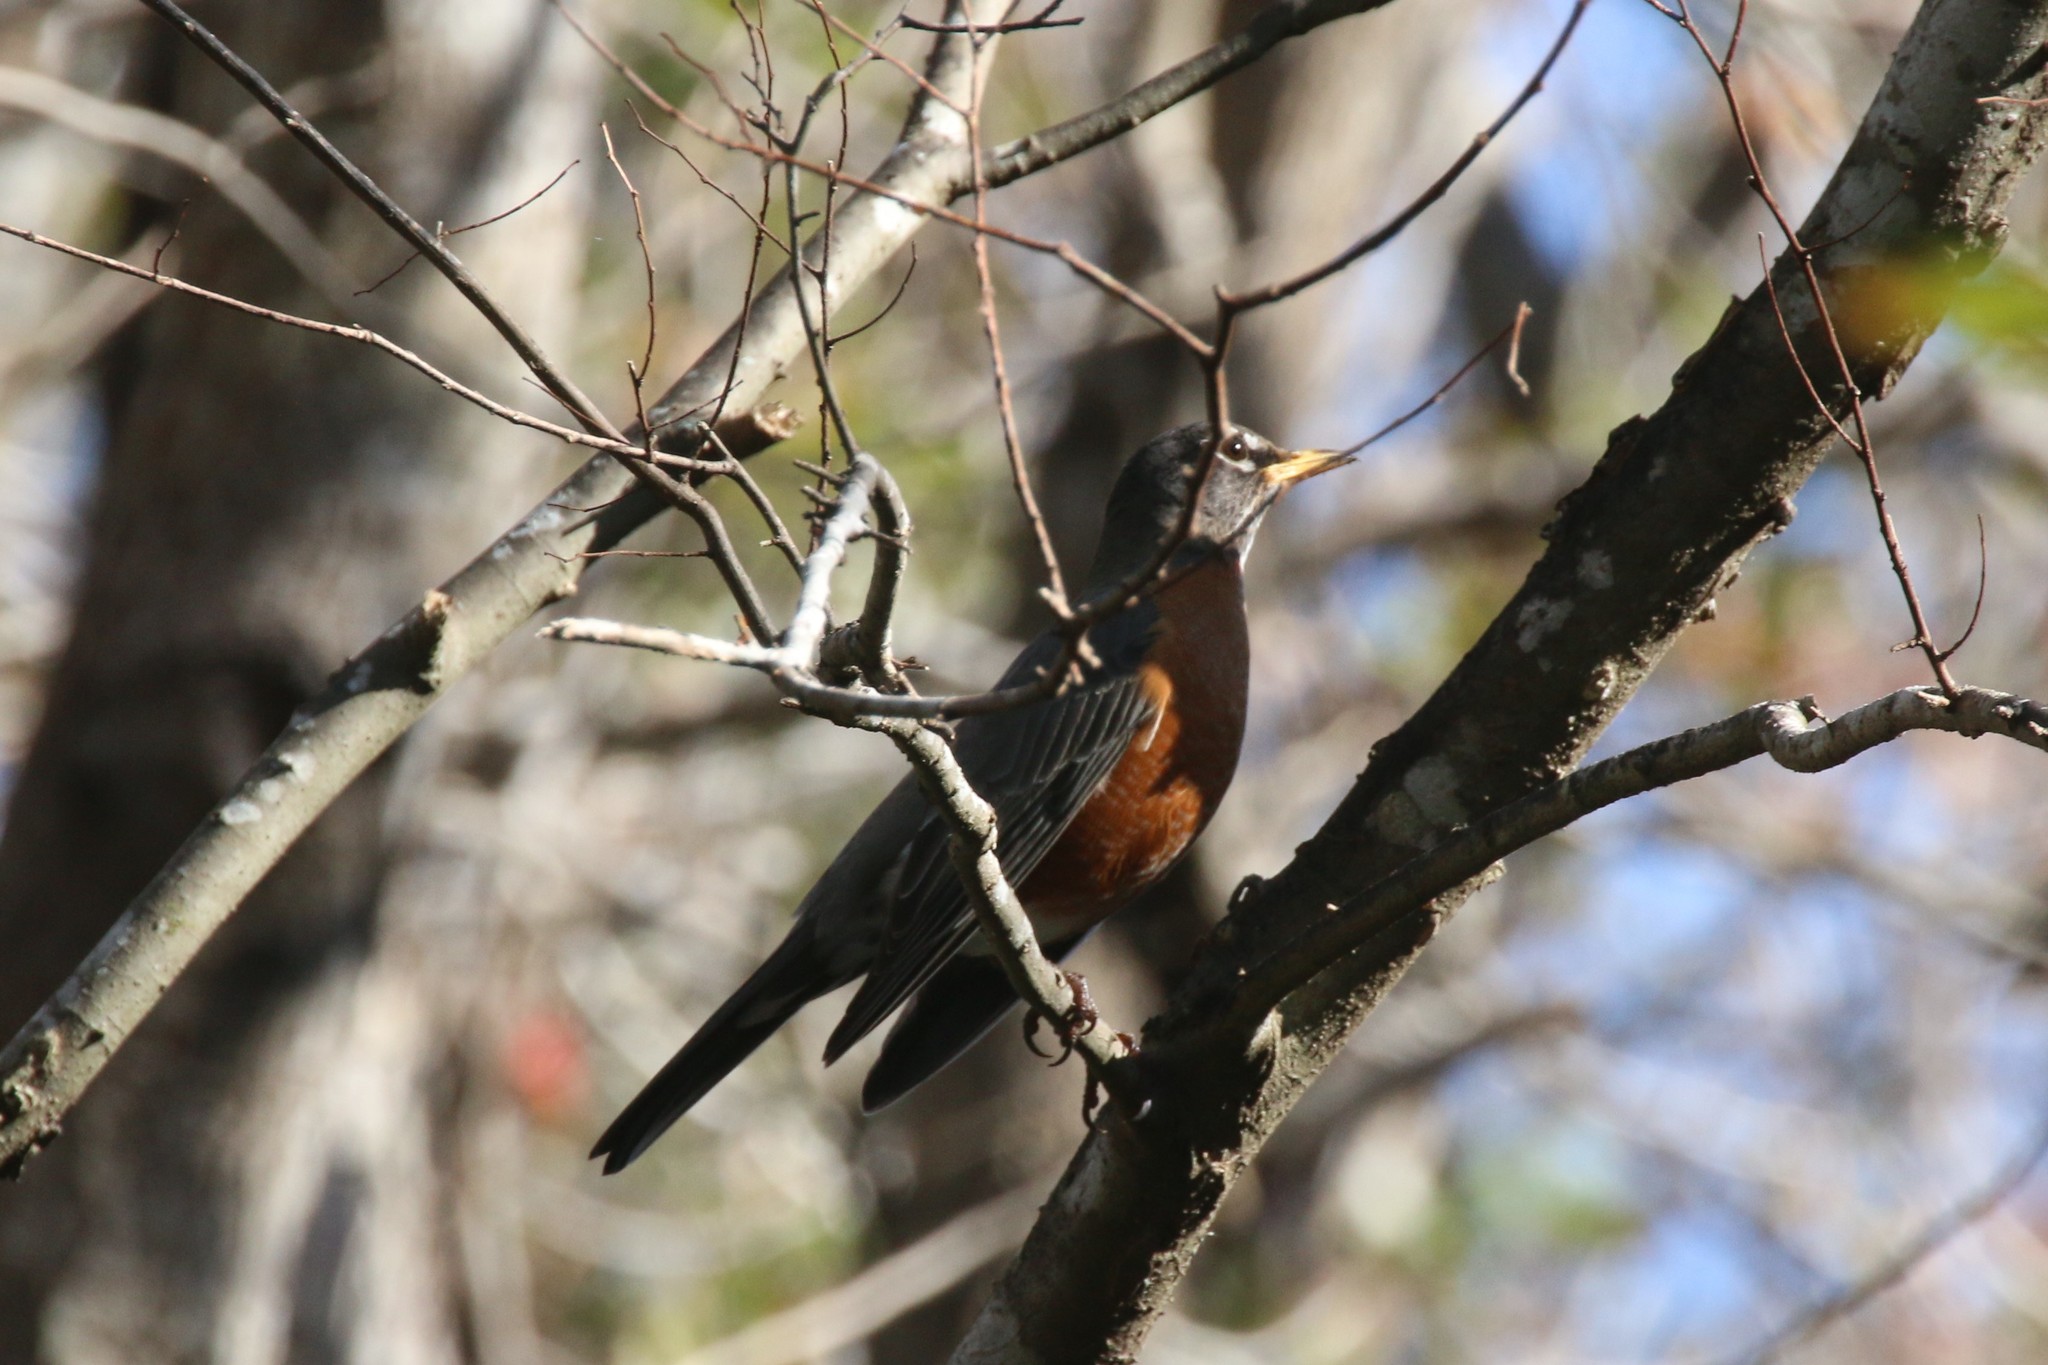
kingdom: Animalia
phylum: Chordata
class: Aves
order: Passeriformes
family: Turdidae
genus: Turdus
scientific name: Turdus migratorius
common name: American robin
